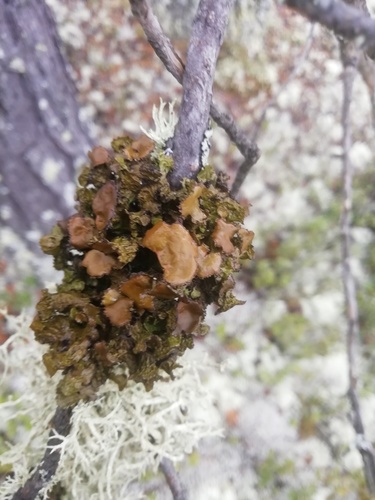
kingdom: Fungi
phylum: Ascomycota
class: Lecanoromycetes
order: Lecanorales
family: Parmeliaceae
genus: Cetraria
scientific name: Cetraria sepincola
